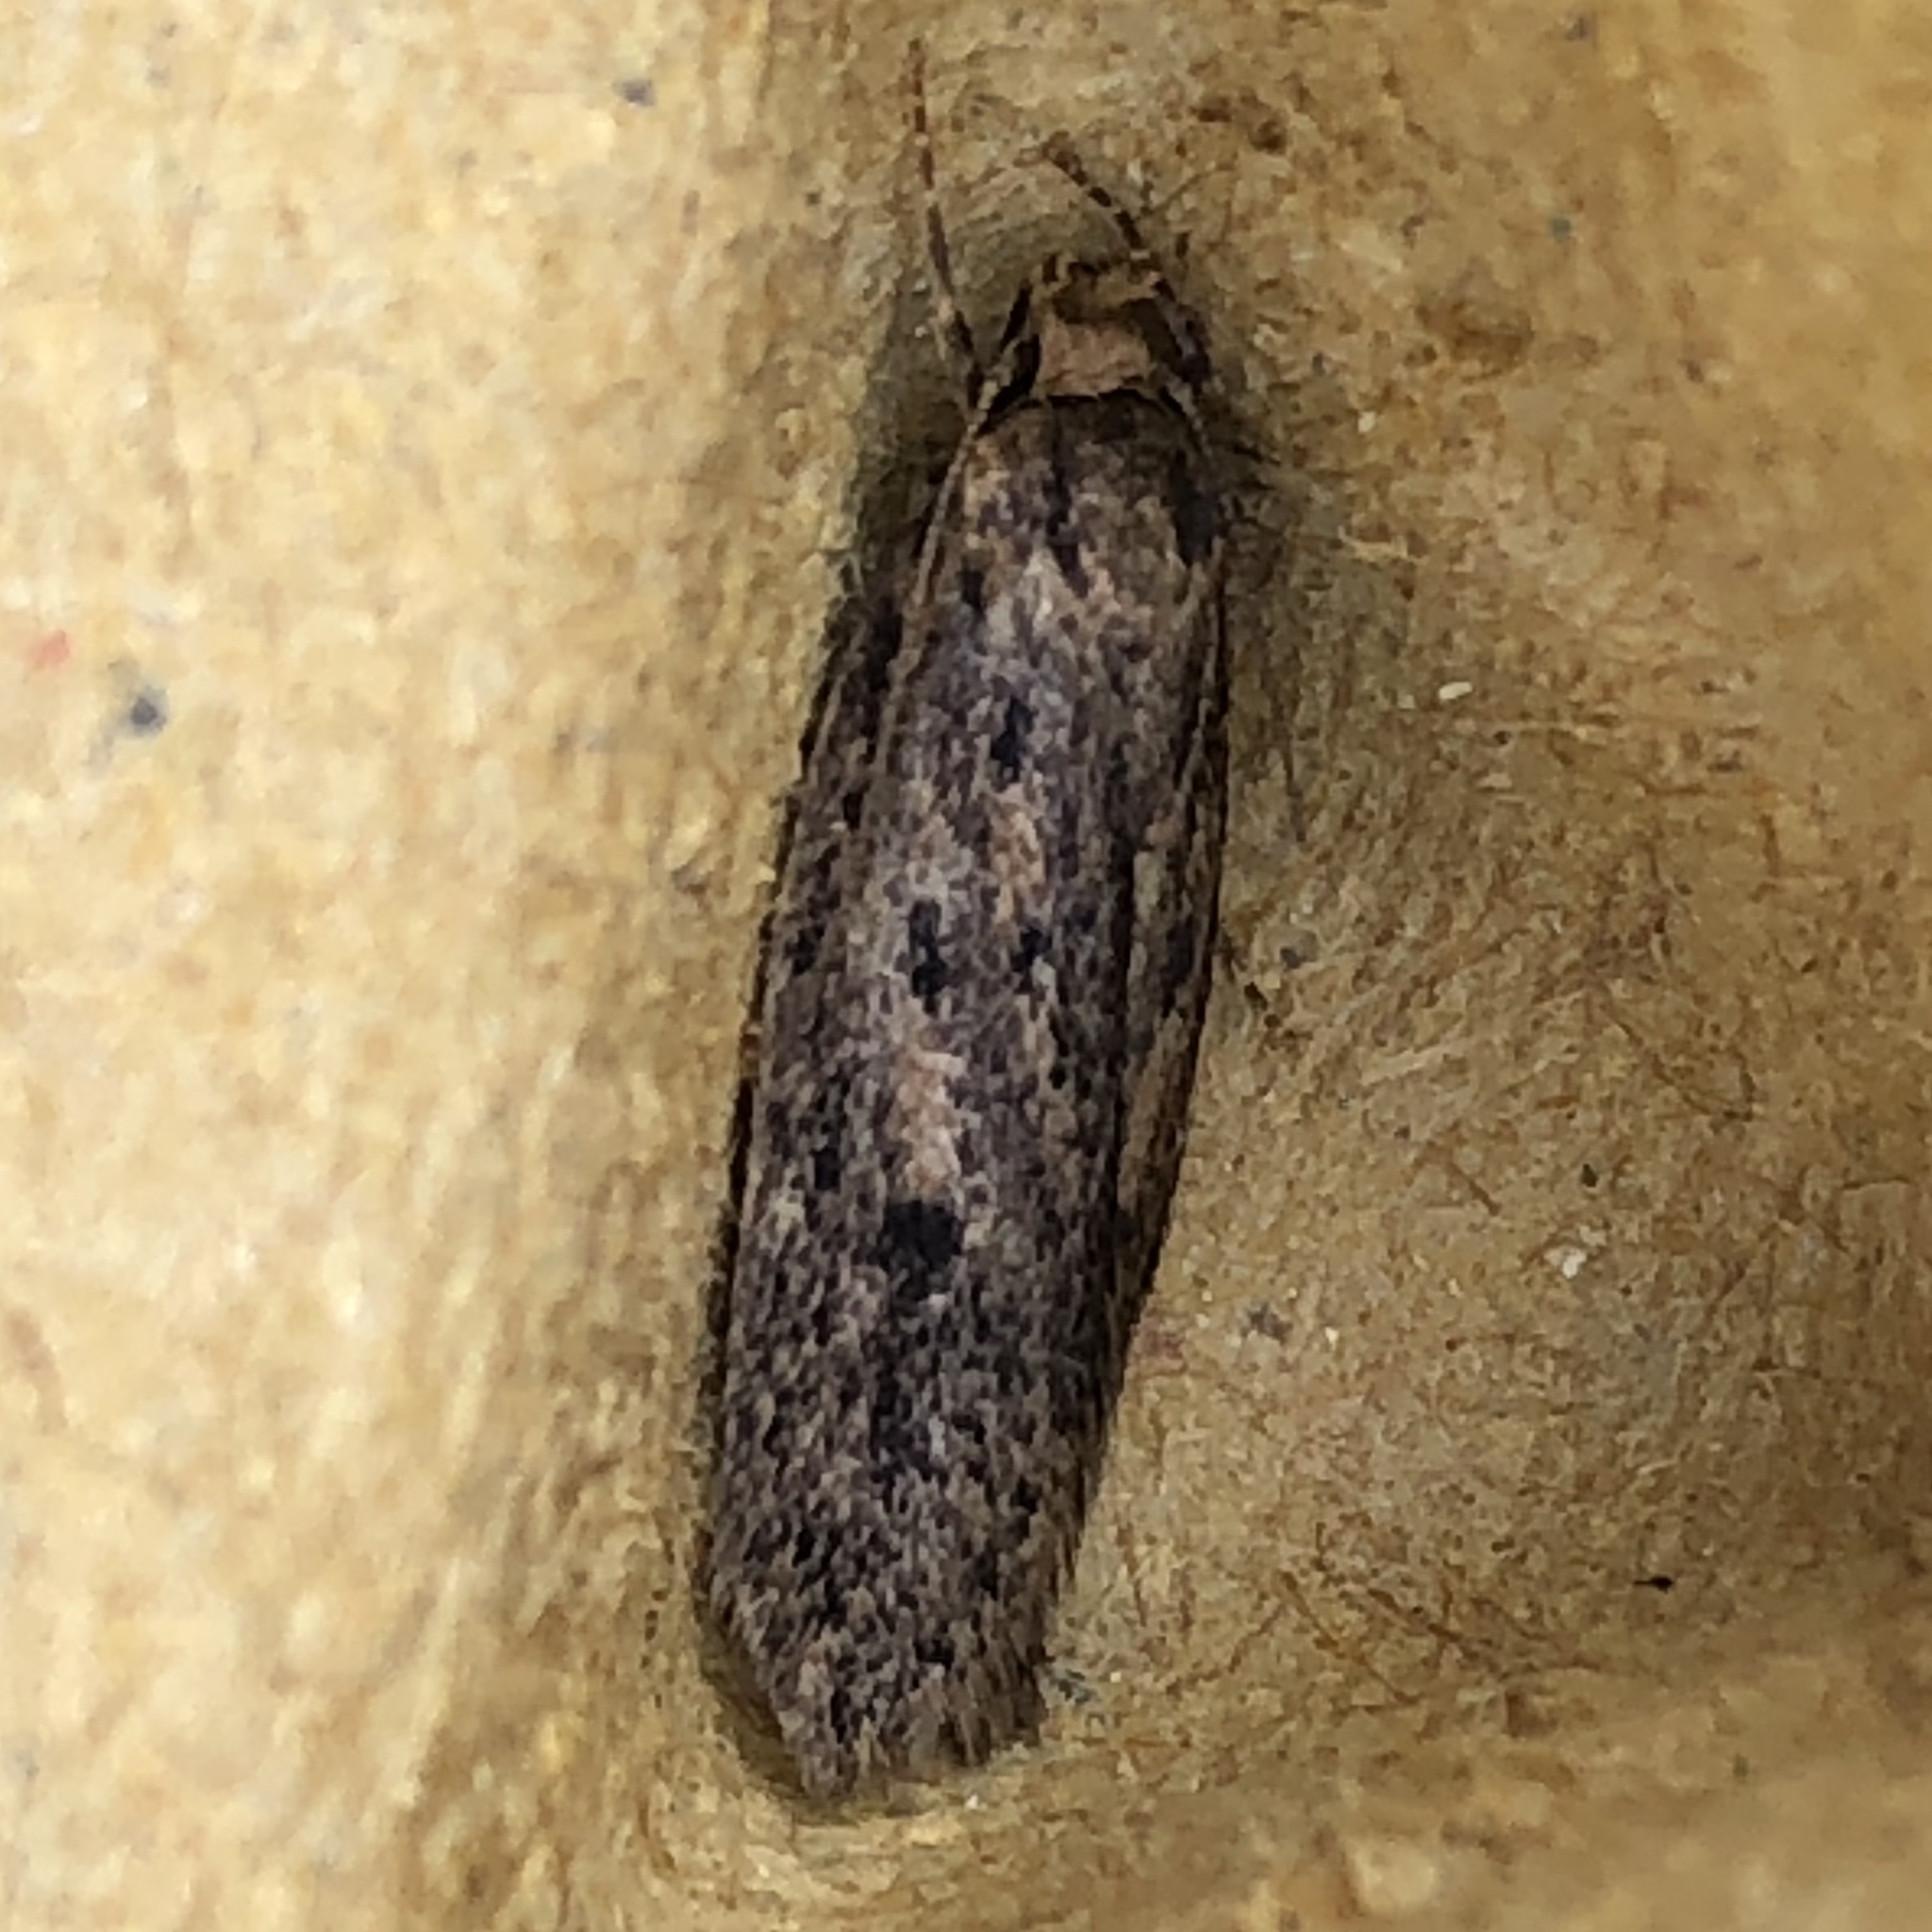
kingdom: Animalia
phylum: Arthropoda
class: Insecta
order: Lepidoptera
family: Oecophoridae
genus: Hofmannophila
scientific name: Hofmannophila pseudospretella
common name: Brown house moth
